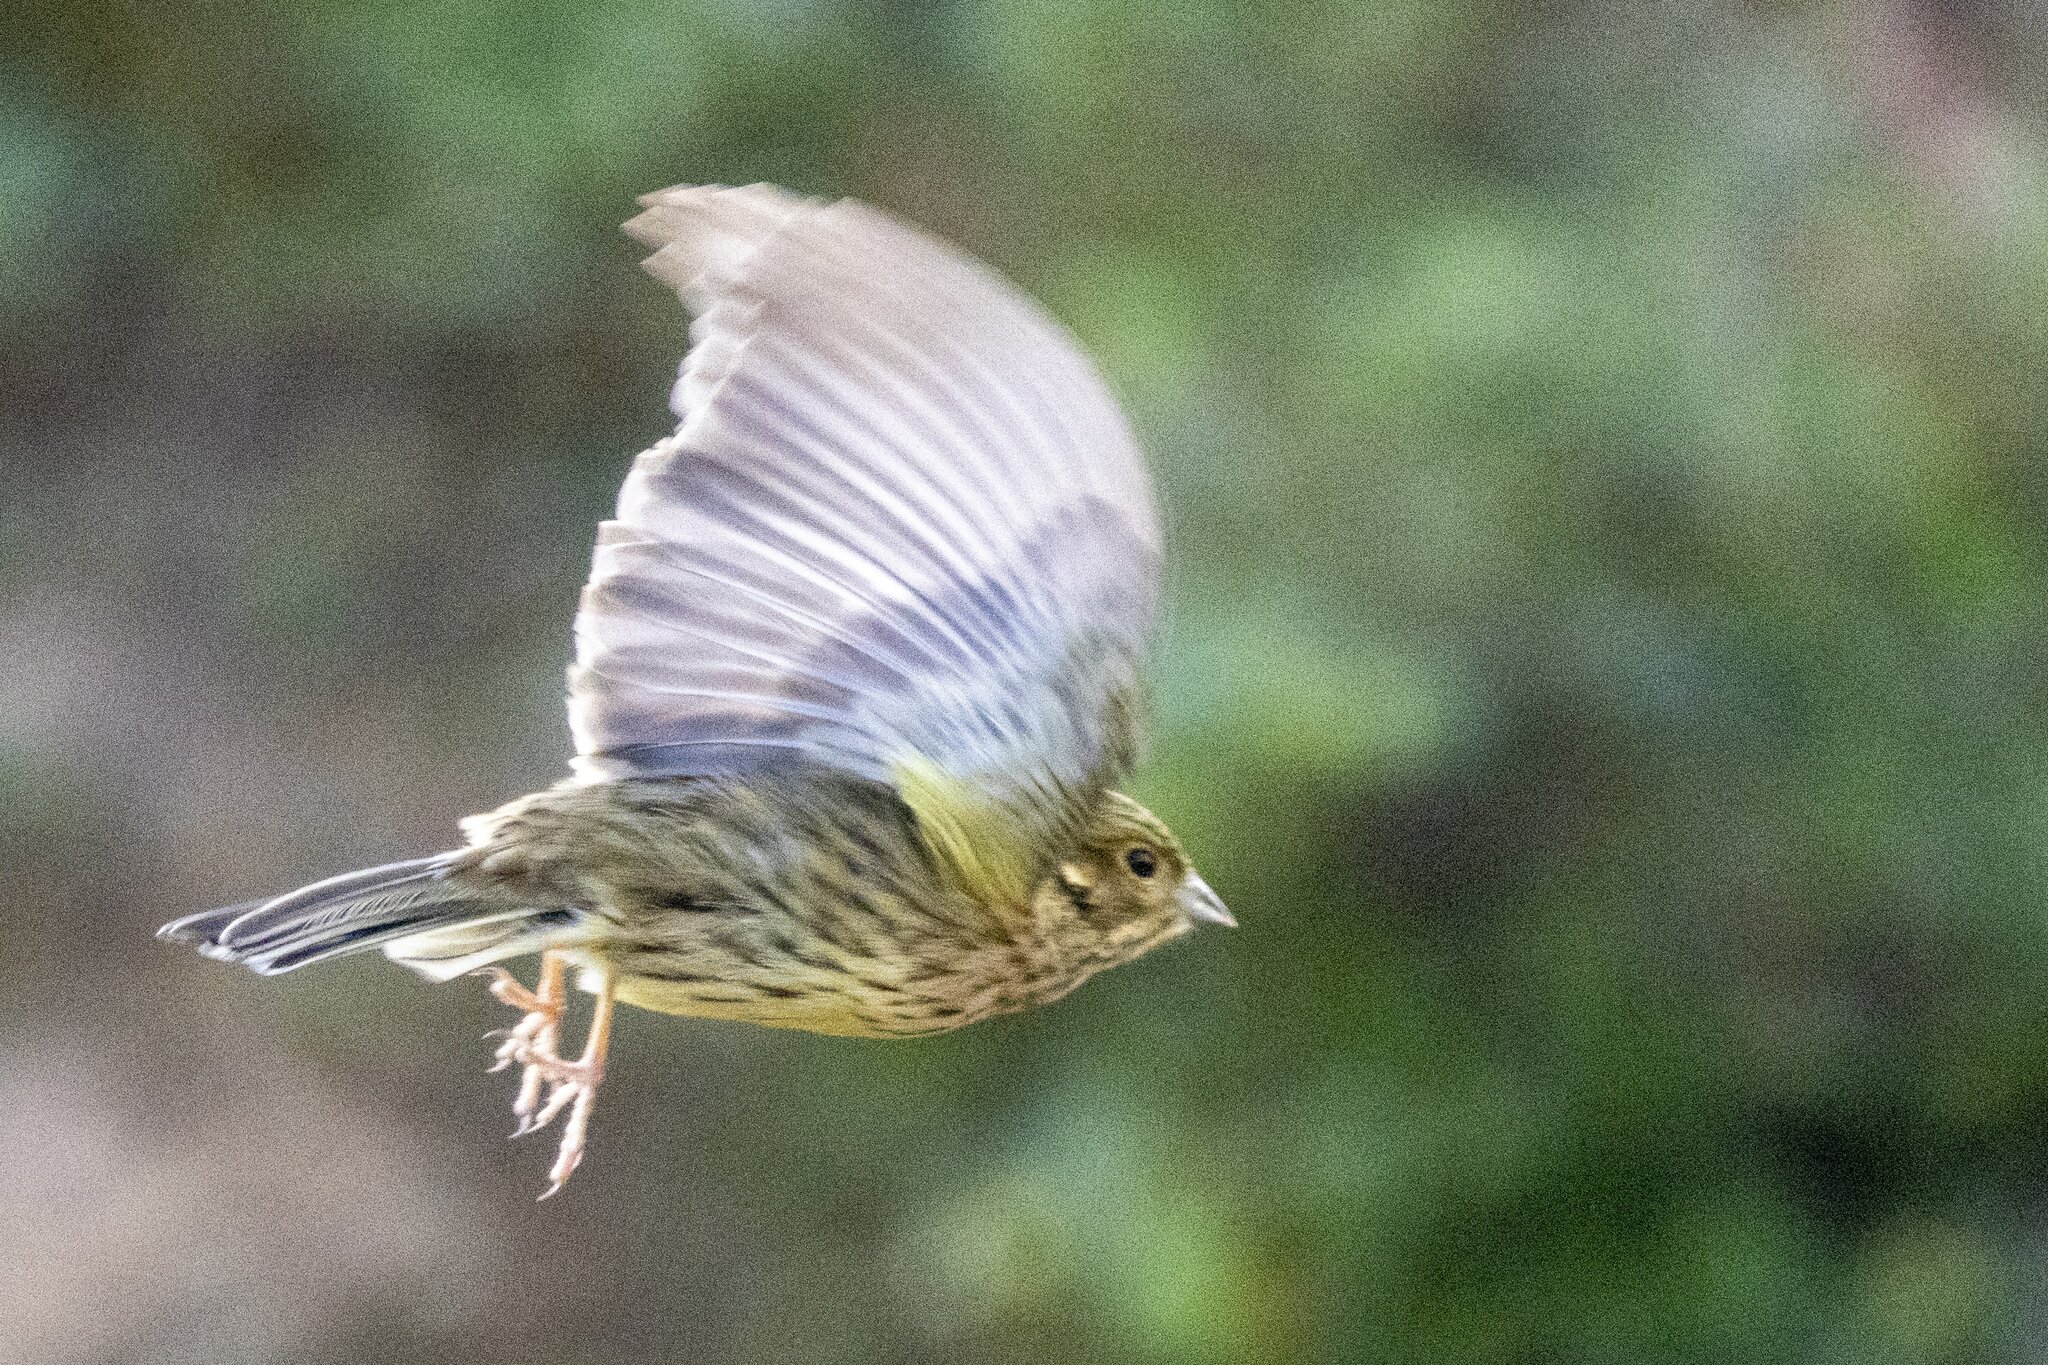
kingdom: Animalia
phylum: Chordata
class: Aves
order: Passeriformes
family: Emberizidae
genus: Emberiza
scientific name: Emberiza cirlus
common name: Cirl bunting
